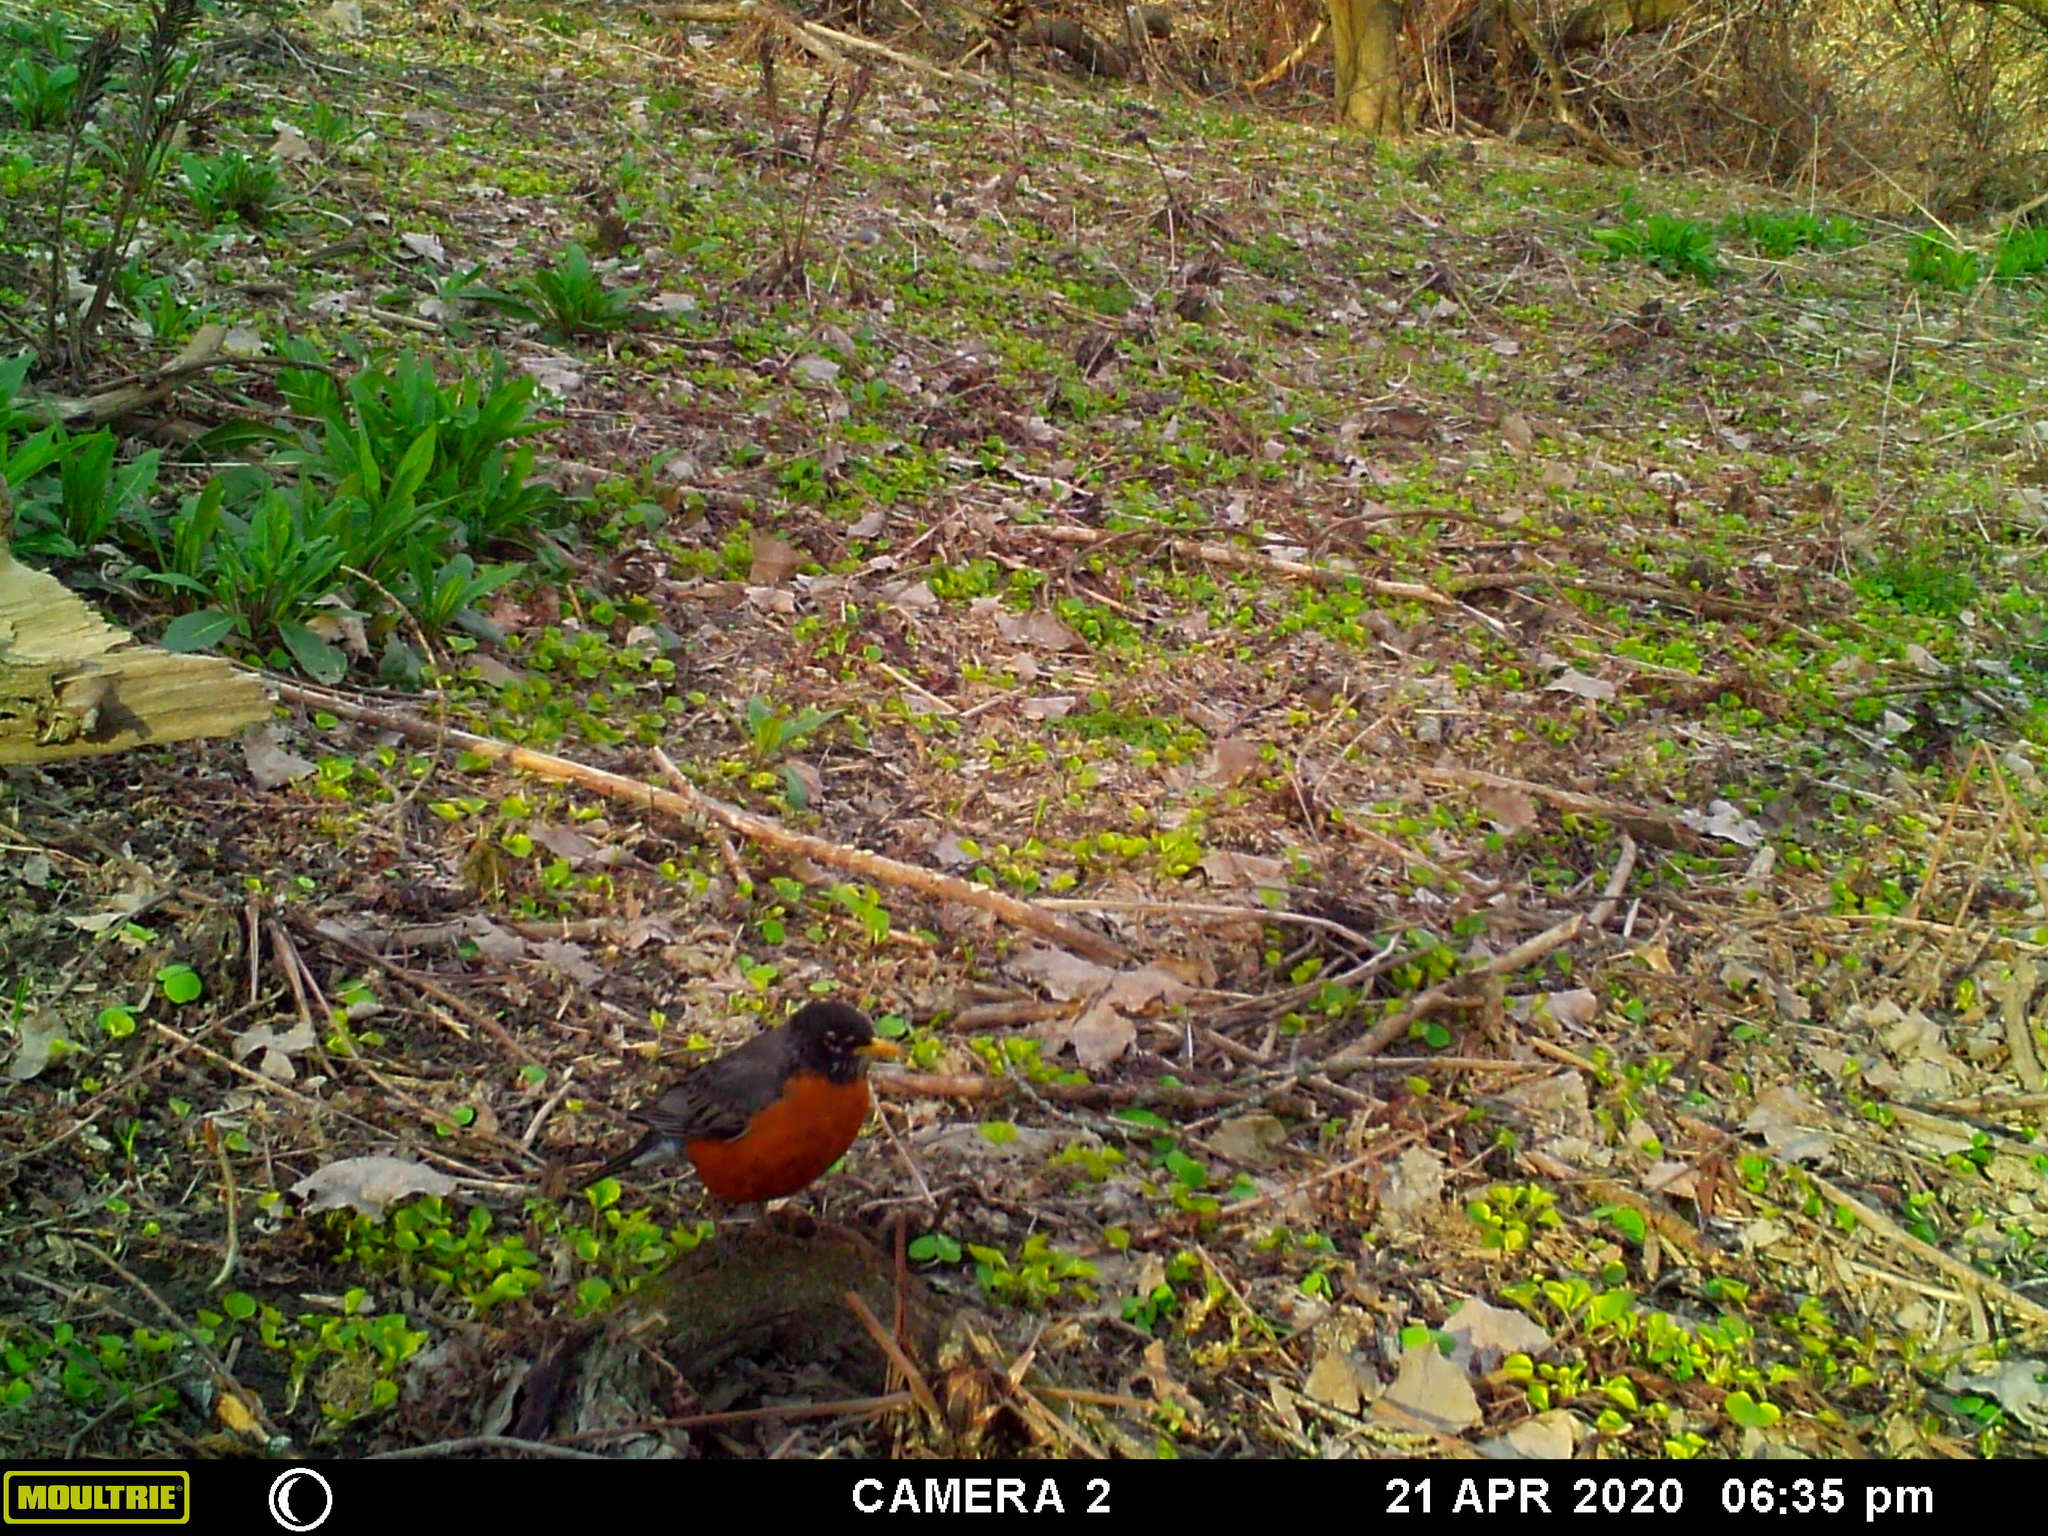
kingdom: Animalia
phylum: Chordata
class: Aves
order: Passeriformes
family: Turdidae
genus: Turdus
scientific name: Turdus migratorius
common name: American robin
